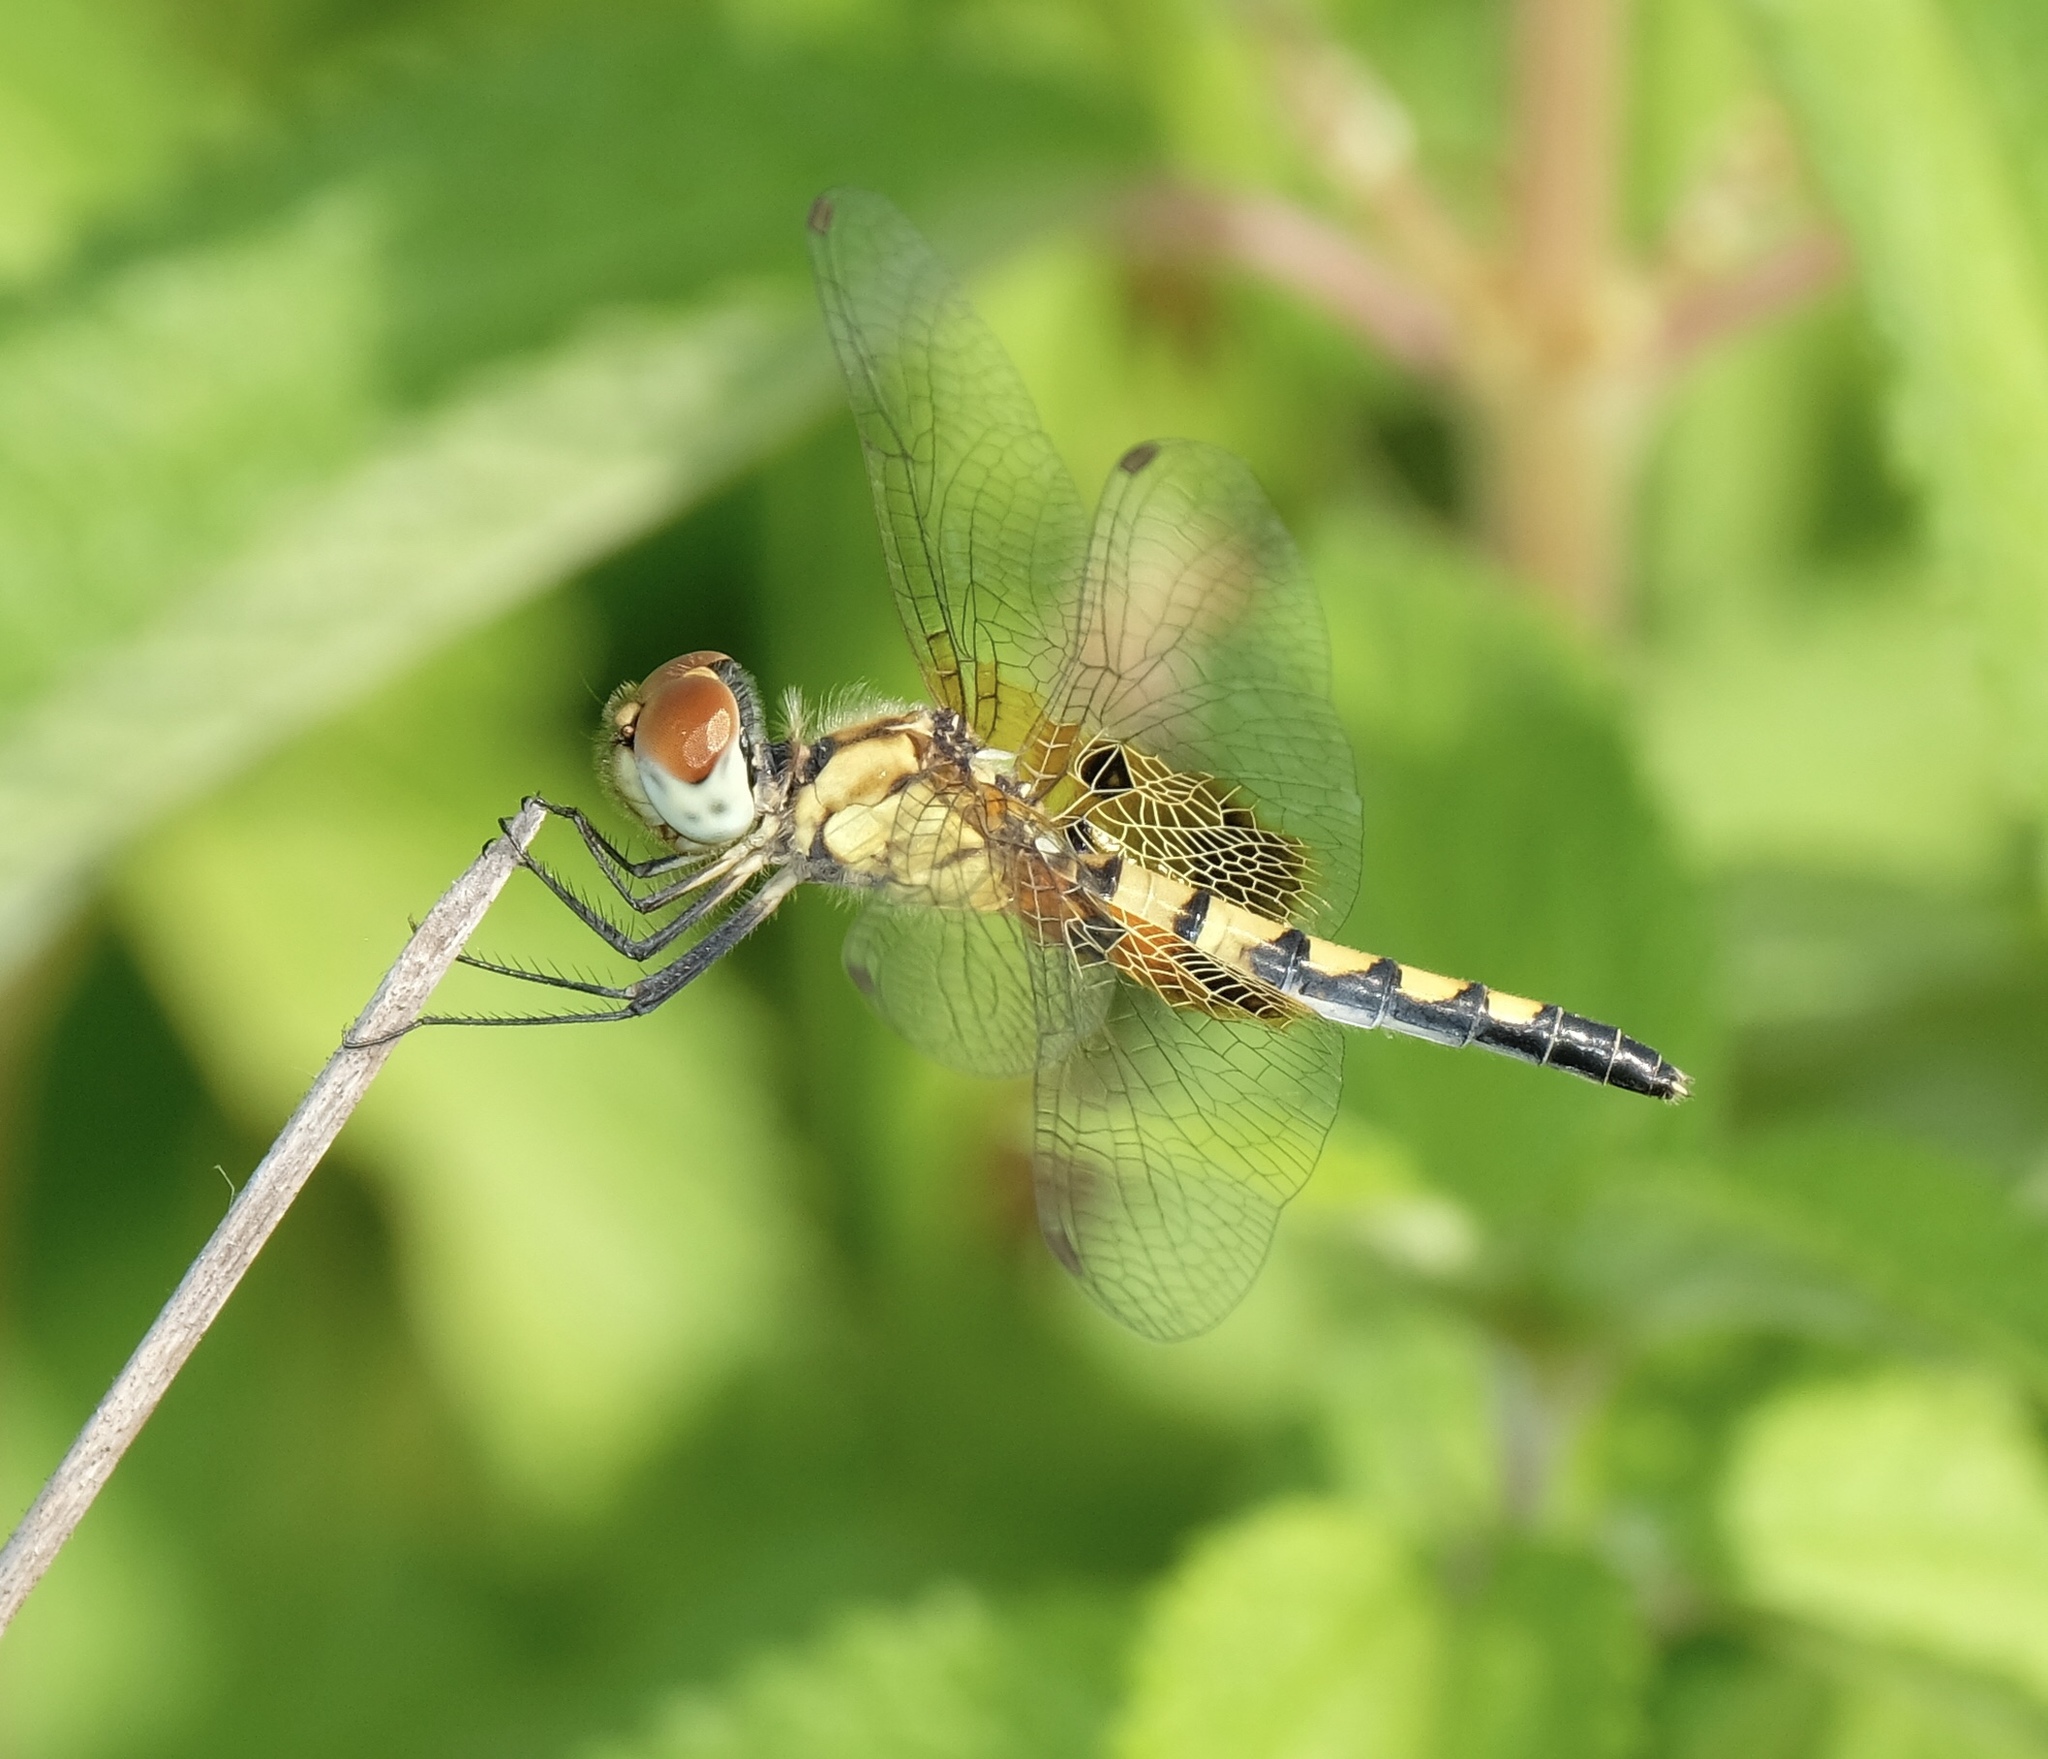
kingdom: Animalia
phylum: Arthropoda
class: Insecta
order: Odonata
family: Libellulidae
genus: Celithemis
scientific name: Celithemis amanda
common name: Amanda's pennant
